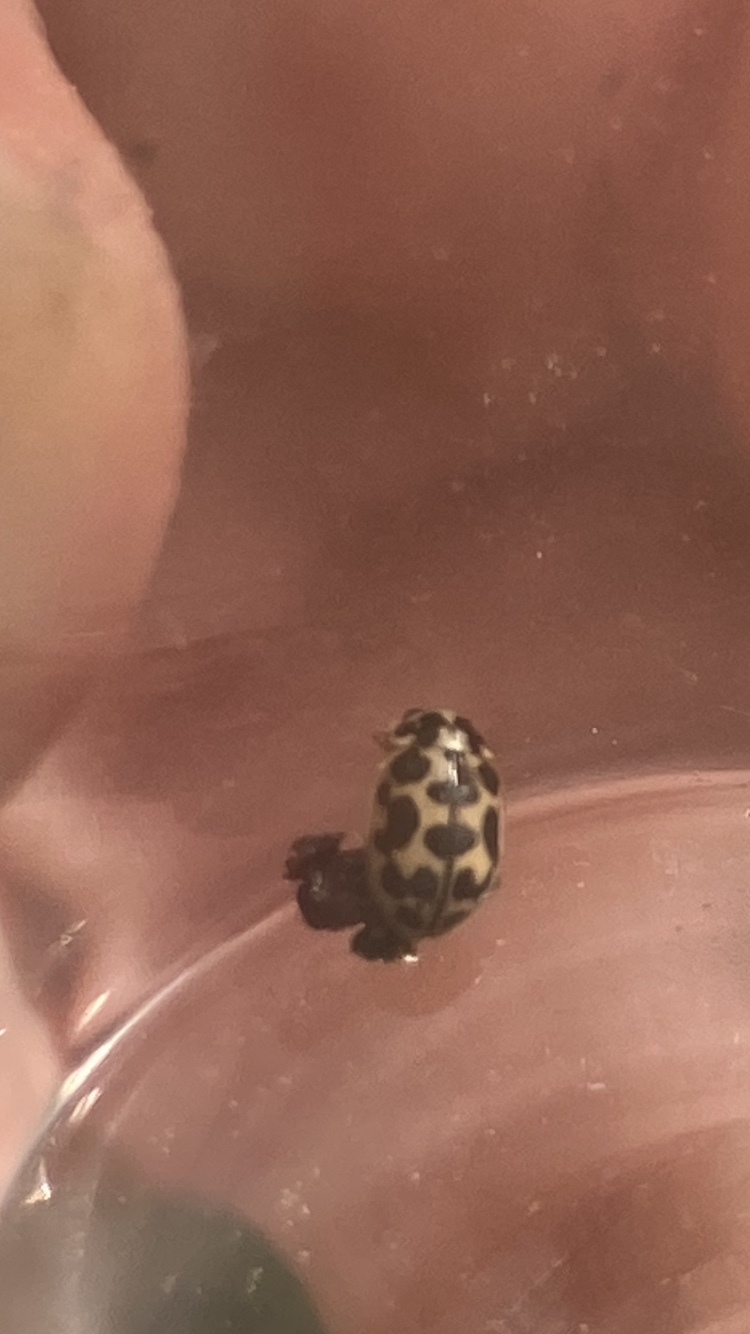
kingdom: Animalia
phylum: Arthropoda
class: Insecta
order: Coleoptera
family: Coccinellidae
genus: Anisosticta
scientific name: Anisosticta bitriangularis
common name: Marsh lady beetle
